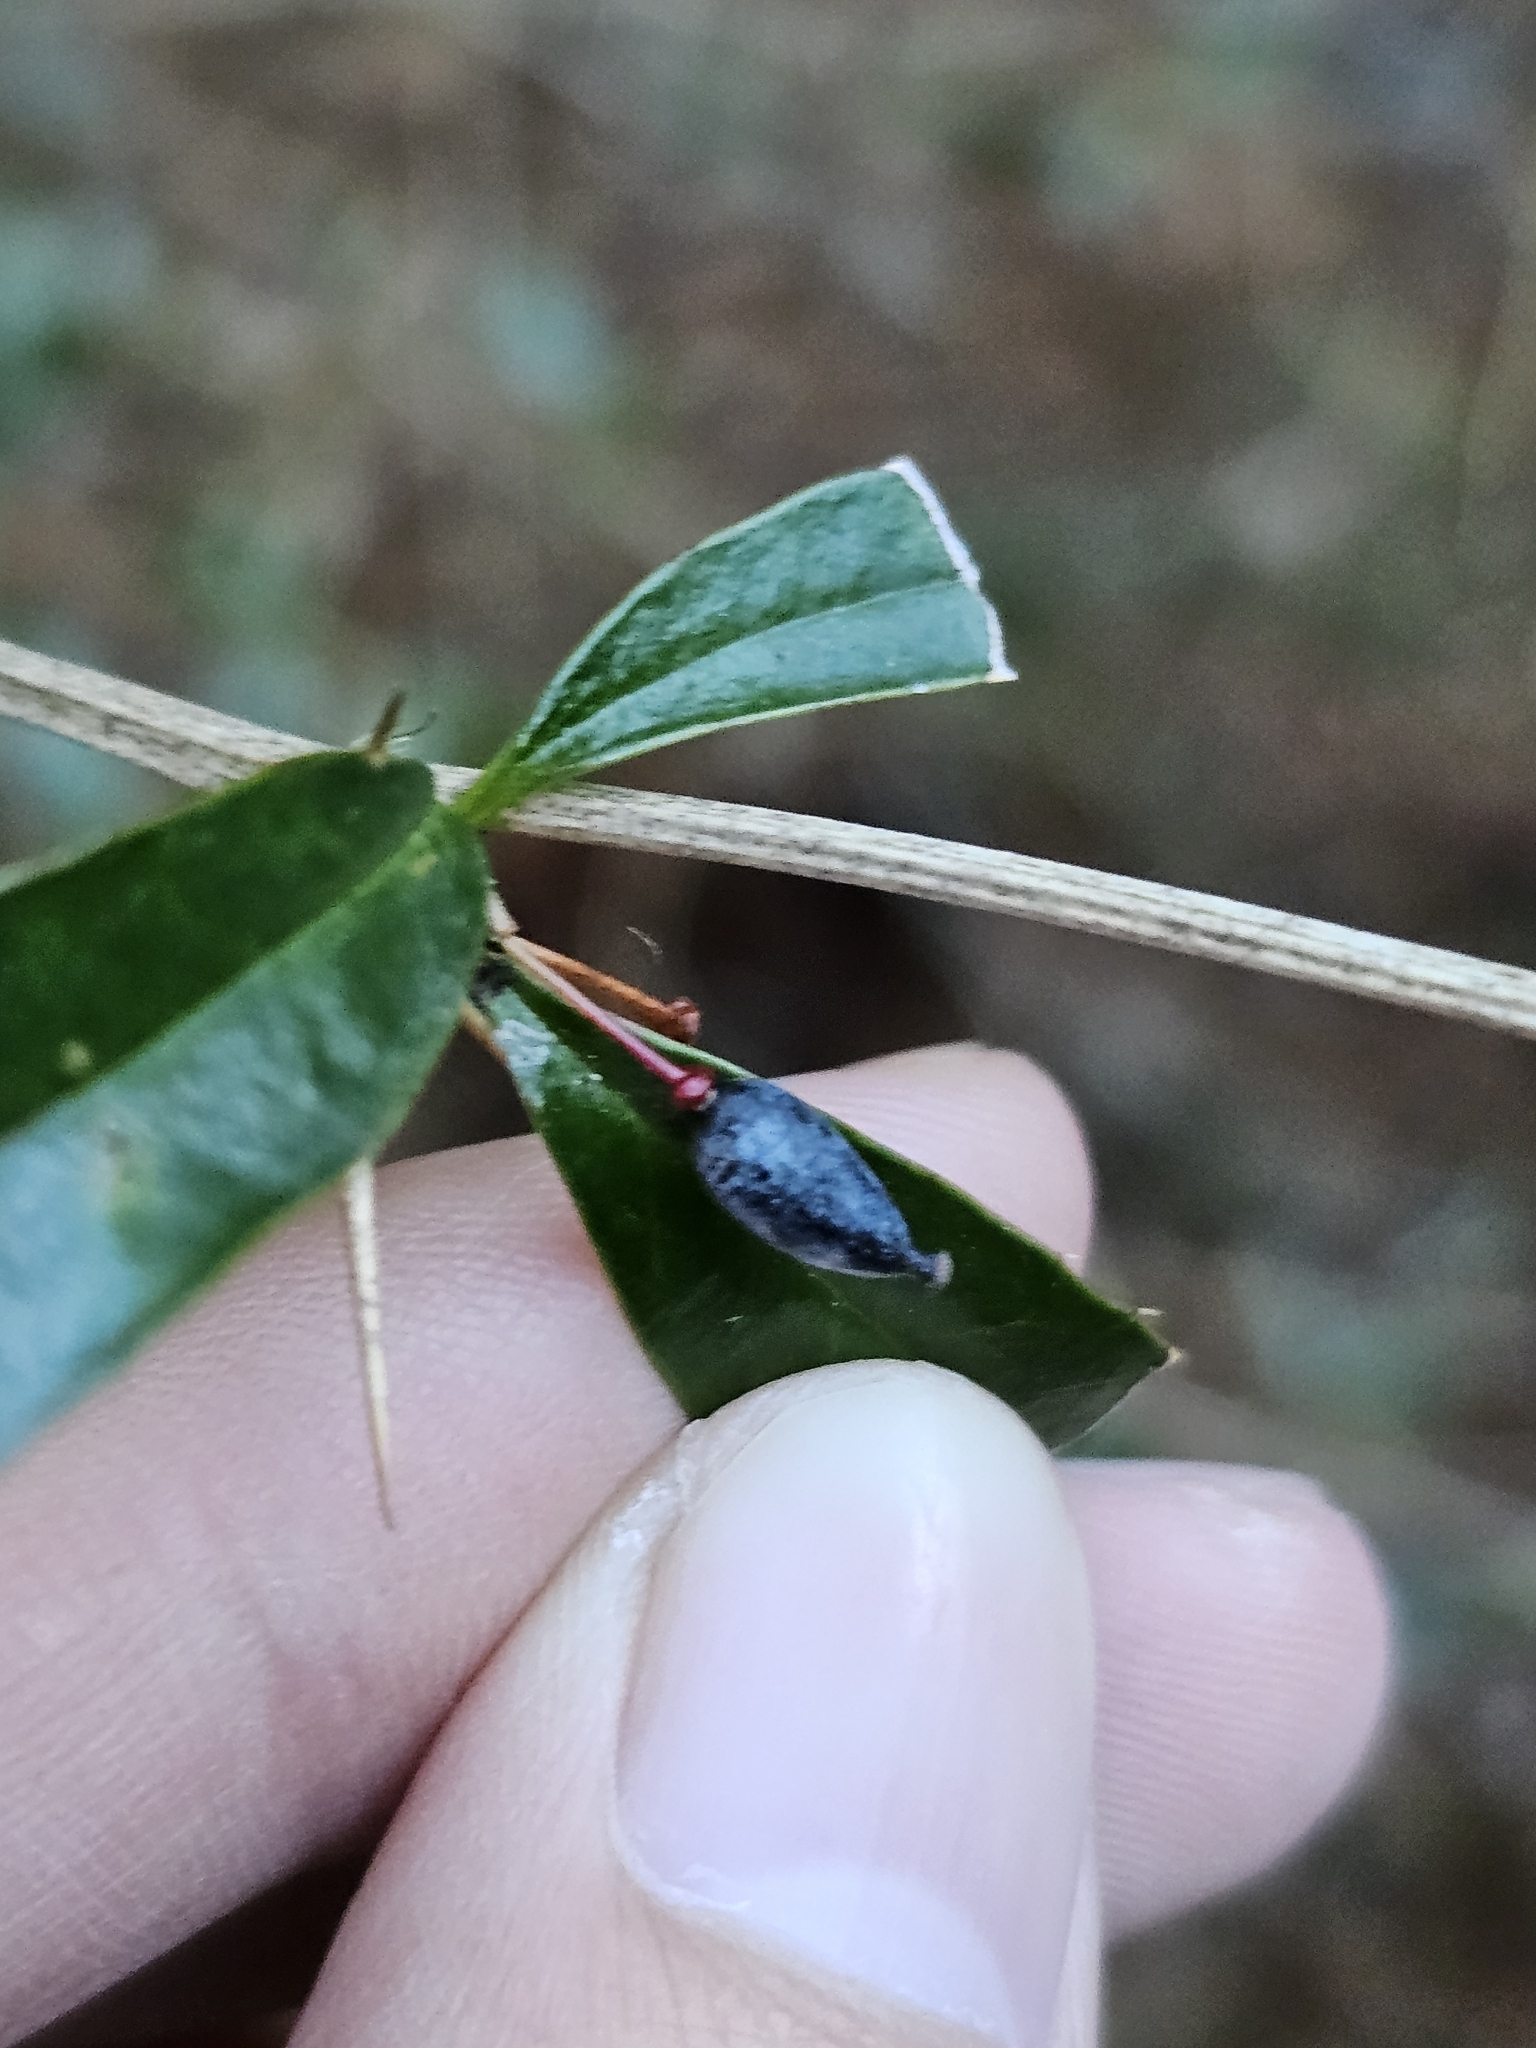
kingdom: Plantae
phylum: Tracheophyta
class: Magnoliopsida
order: Ranunculales
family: Berberidaceae
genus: Berberis
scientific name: Berberis kawakamii
